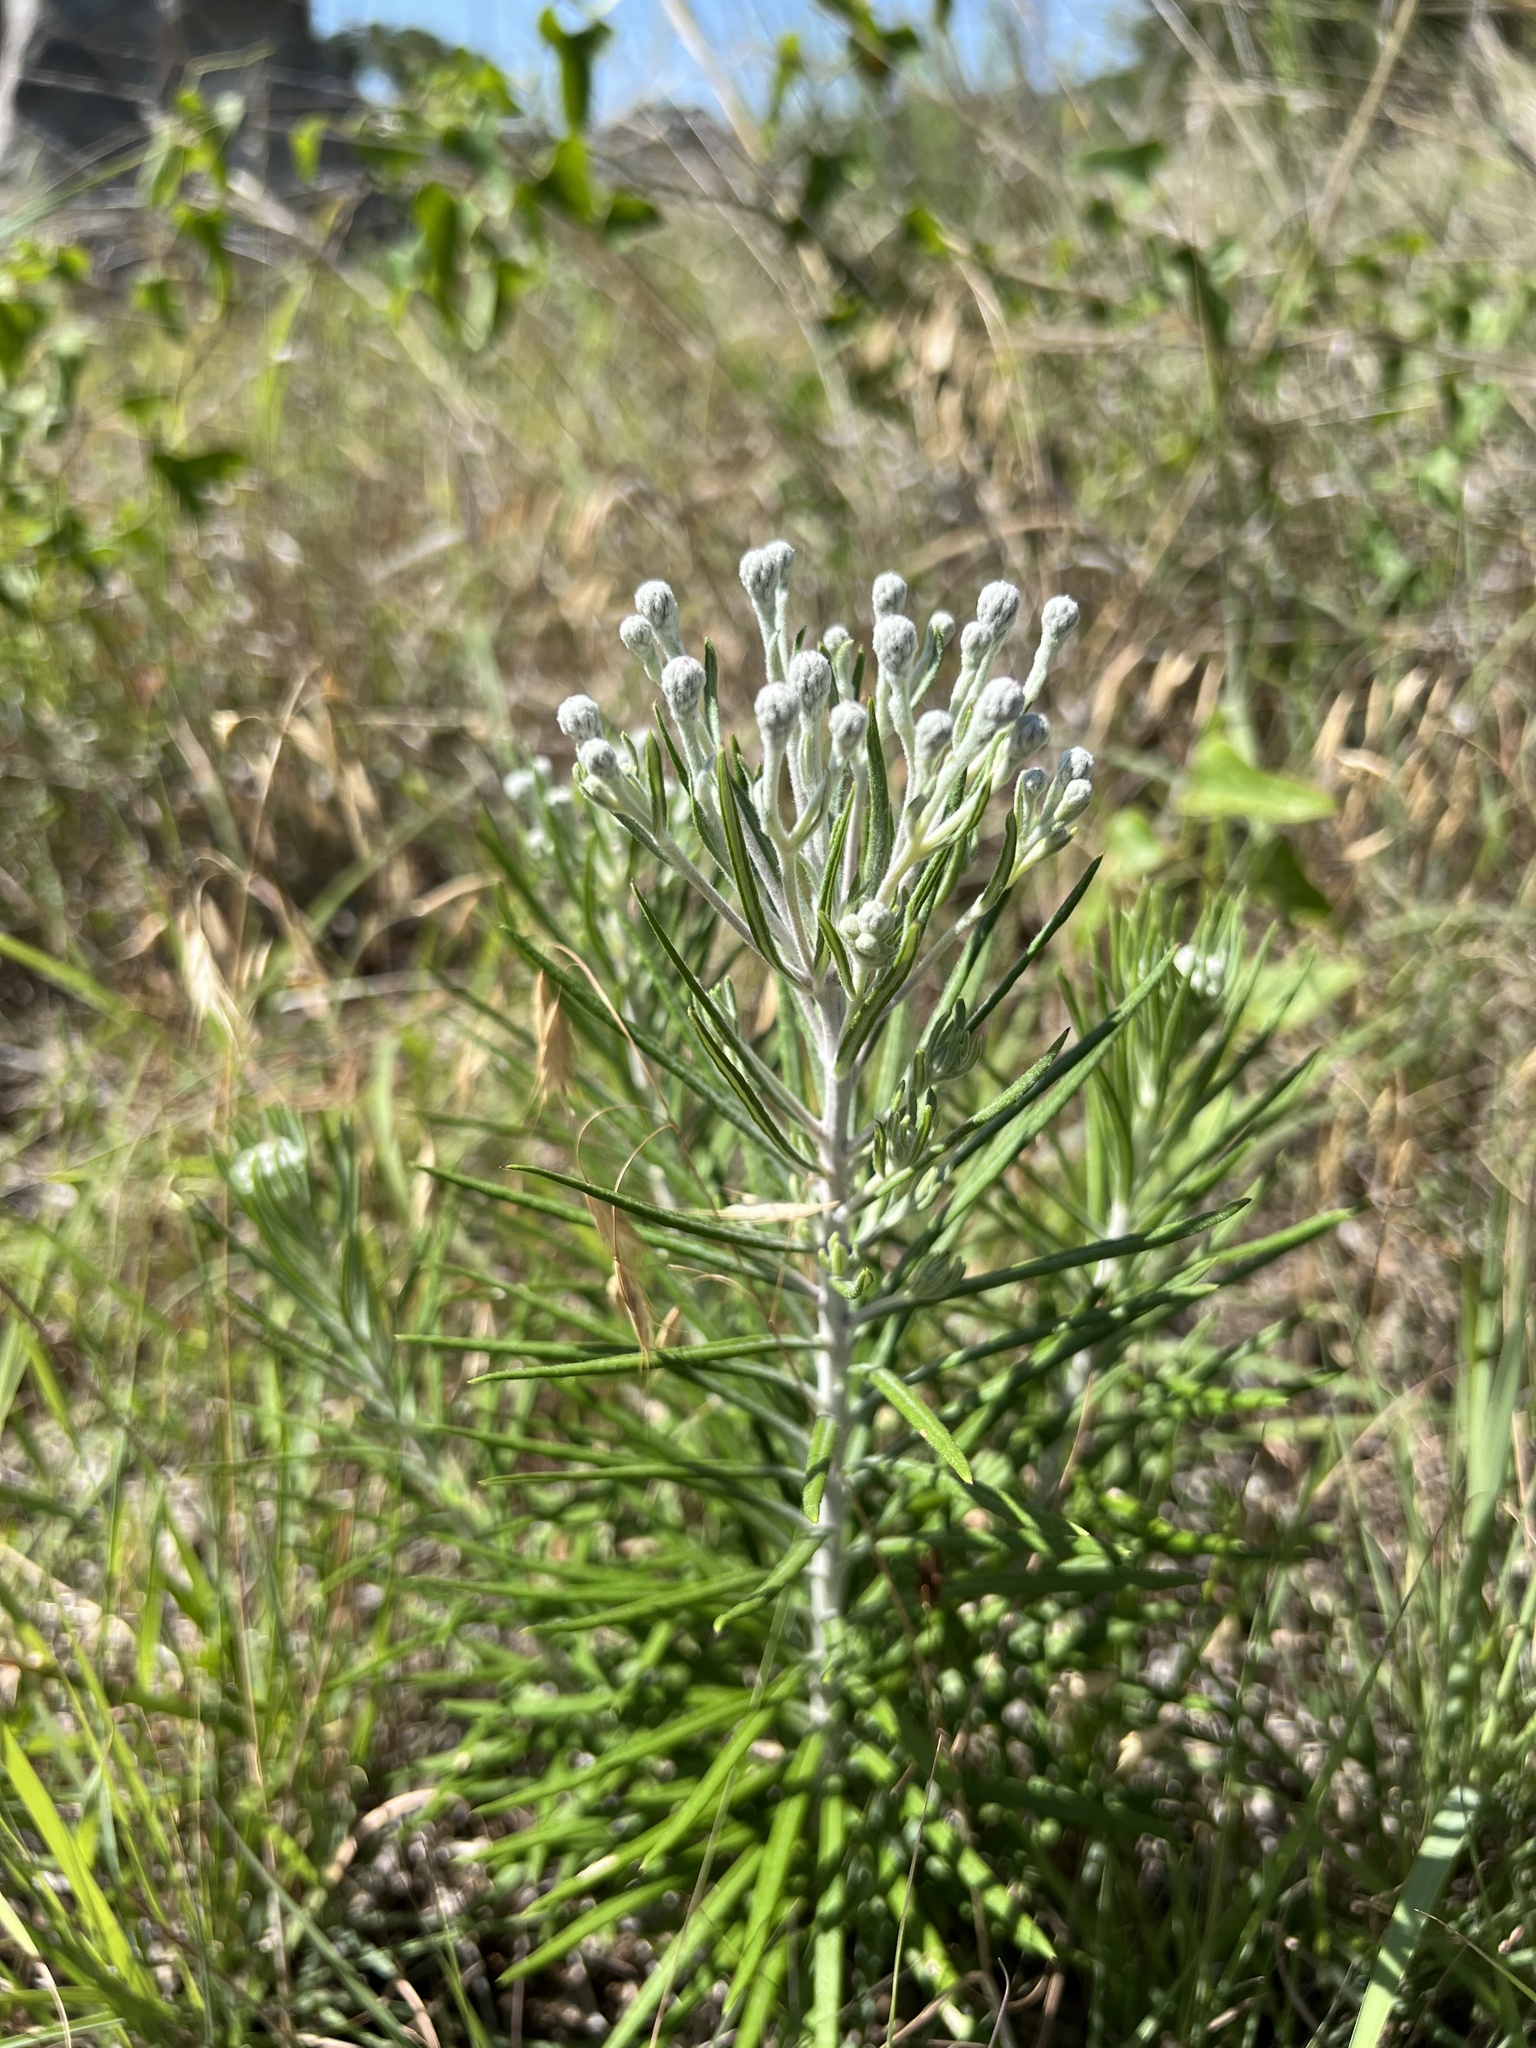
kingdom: Plantae
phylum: Tracheophyta
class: Magnoliopsida
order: Asterales
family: Asteraceae
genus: Vernonia
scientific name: Vernonia lindheimeri
